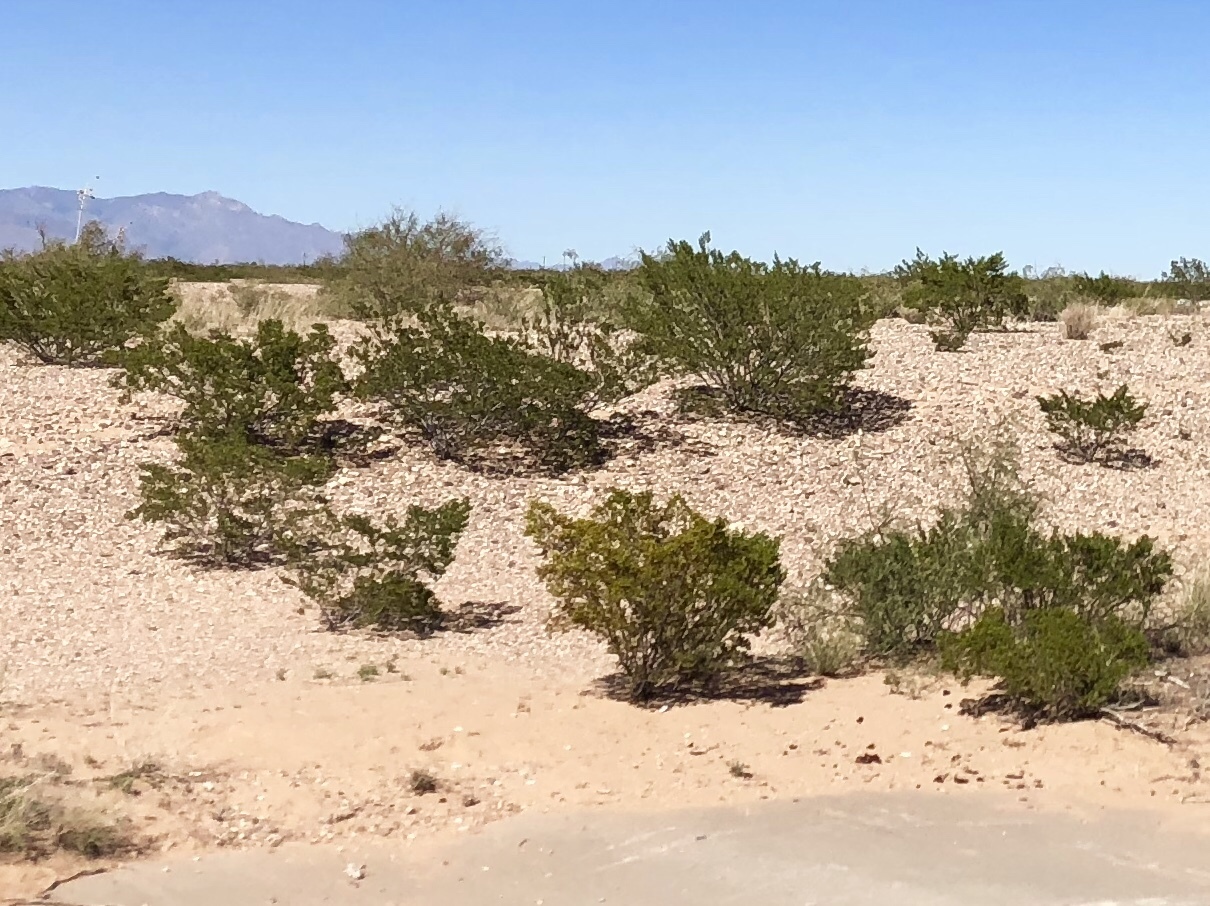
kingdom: Plantae
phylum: Tracheophyta
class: Magnoliopsida
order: Zygophyllales
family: Zygophyllaceae
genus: Larrea
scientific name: Larrea tridentata
